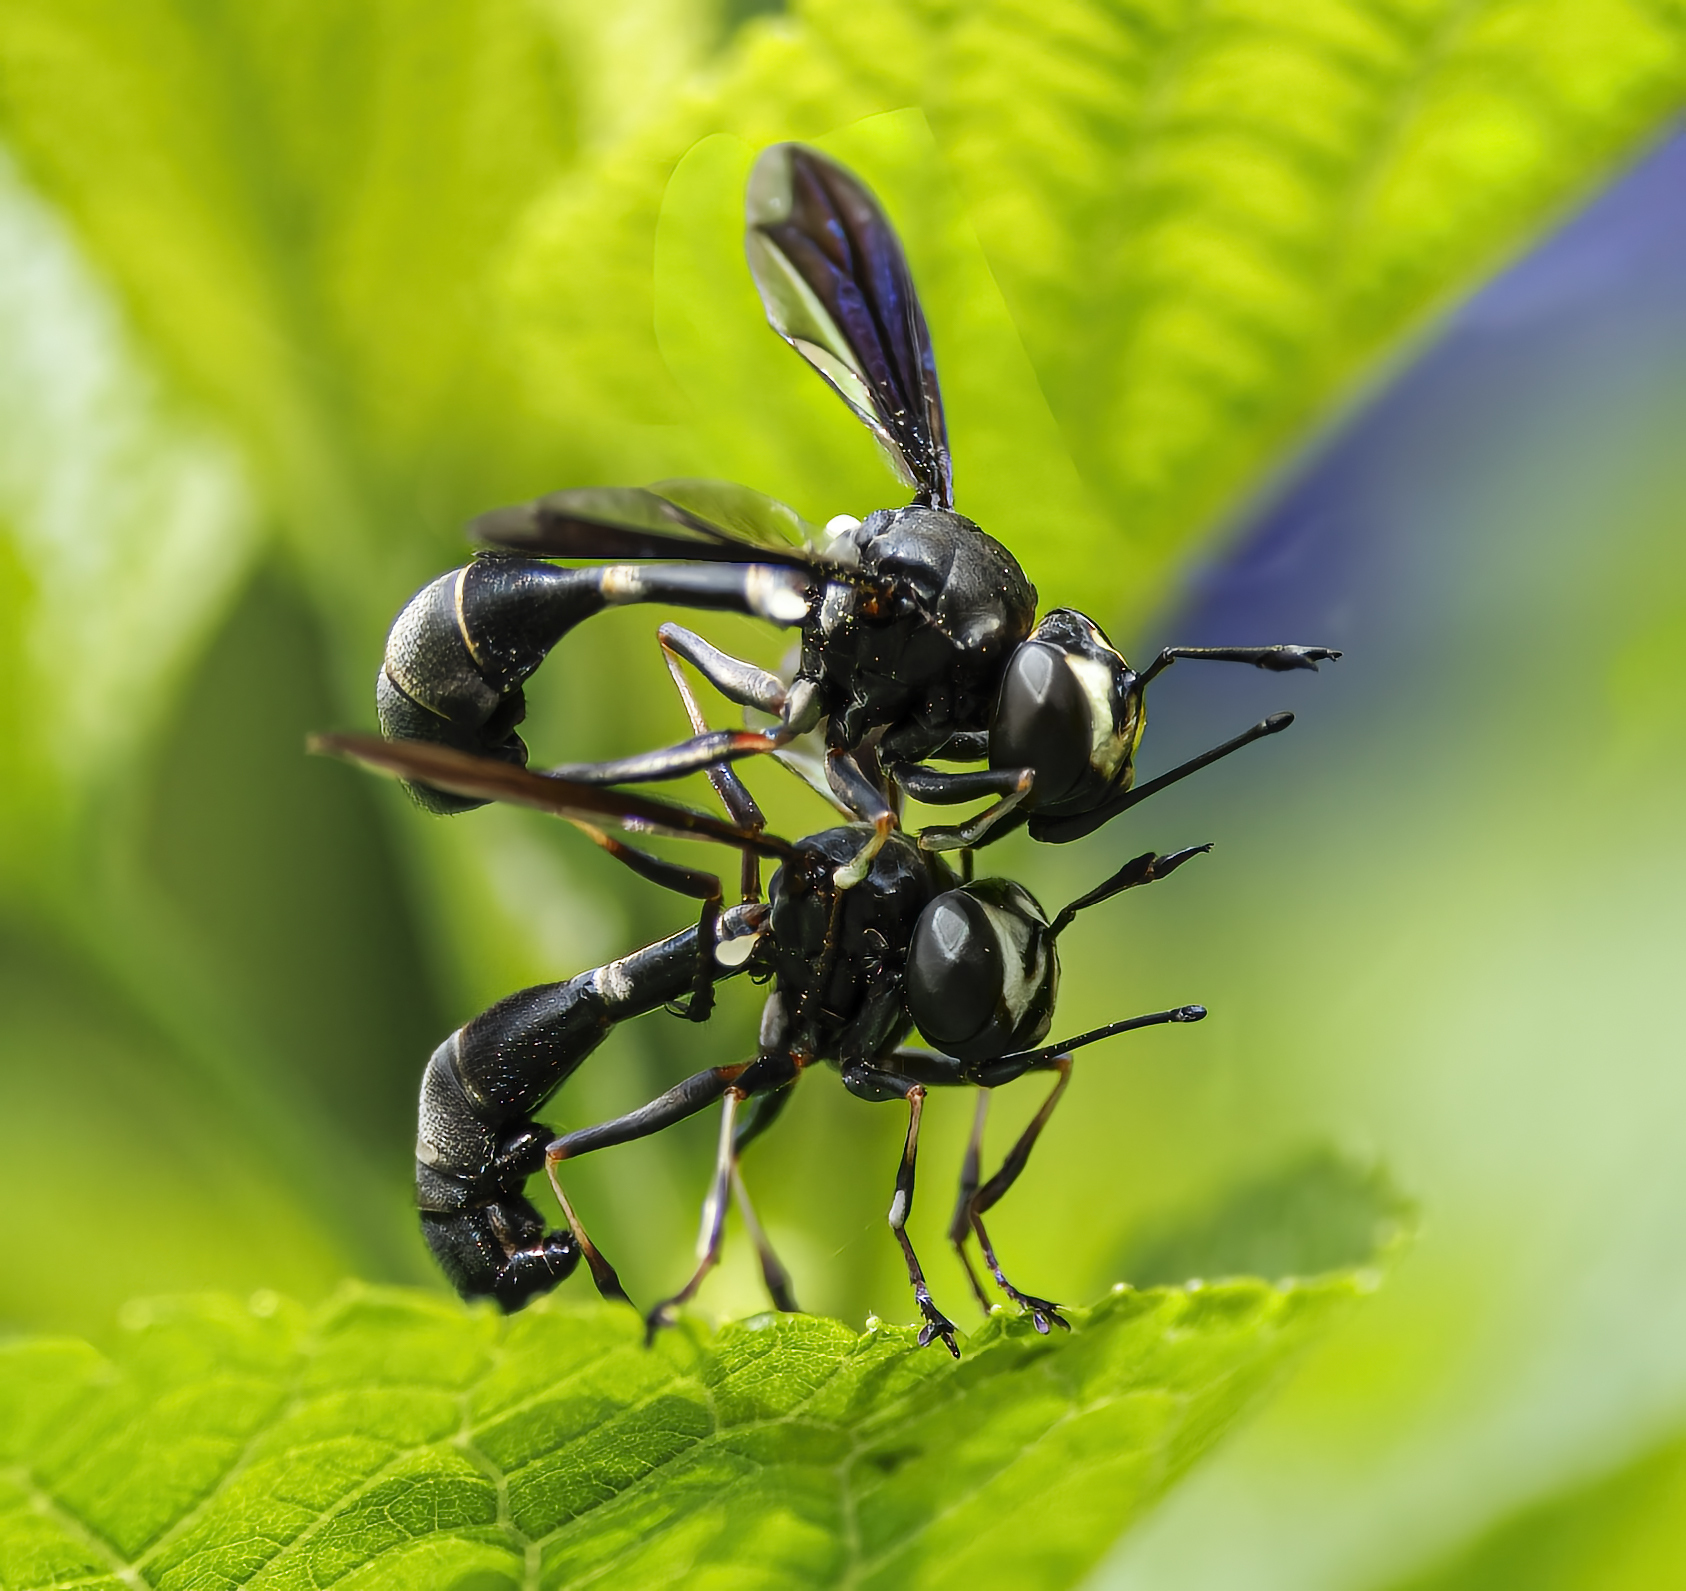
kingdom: Animalia
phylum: Arthropoda
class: Insecta
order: Diptera
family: Conopidae
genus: Physocephala
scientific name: Physocephala tibialis
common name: Common eastern physocephala
